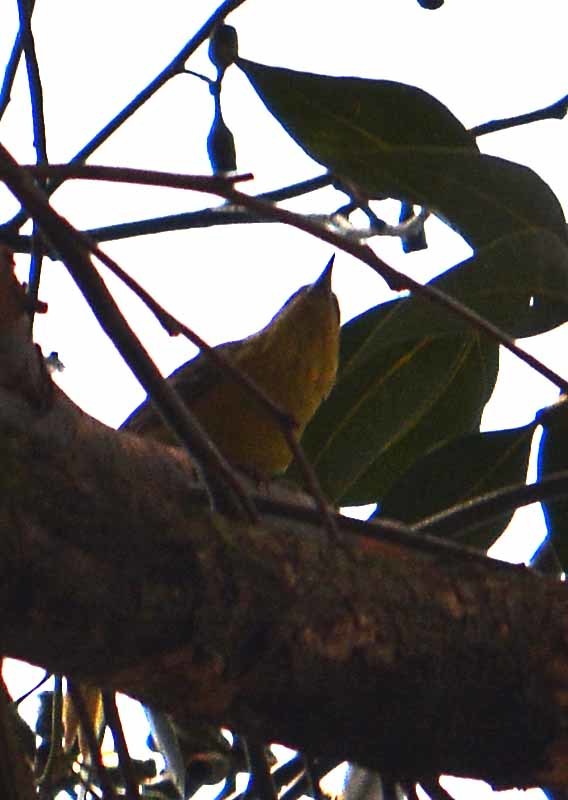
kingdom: Animalia
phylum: Chordata
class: Aves
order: Passeriformes
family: Parulidae
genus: Setophaga
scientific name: Setophaga petechia
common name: Yellow warbler
